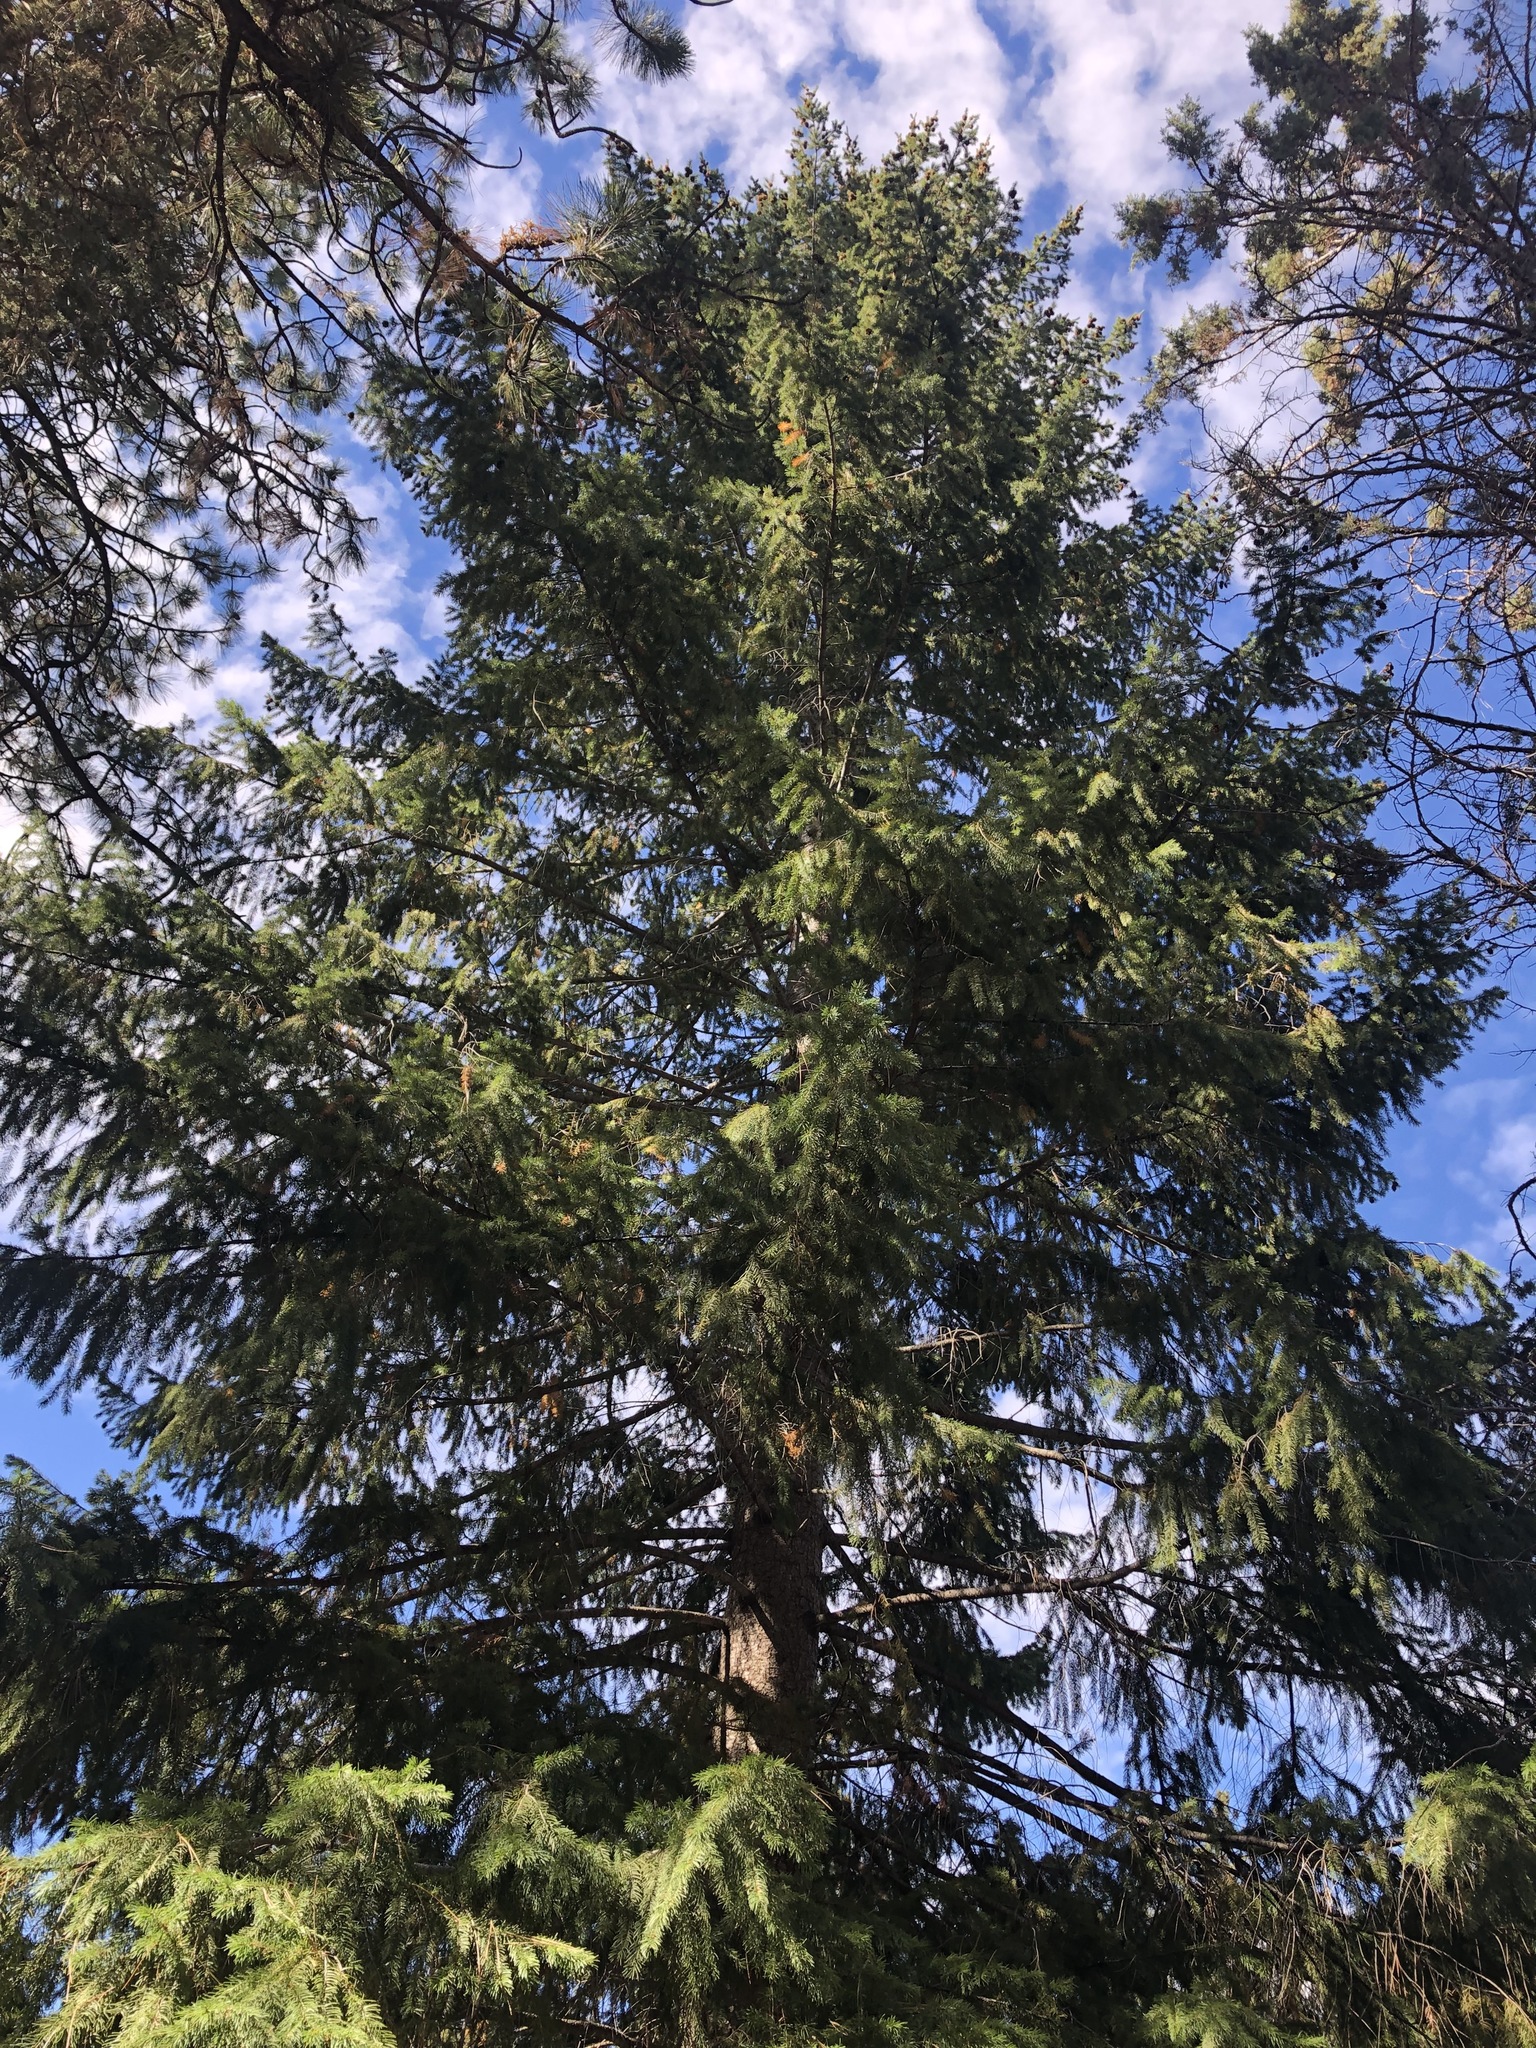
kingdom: Plantae
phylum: Tracheophyta
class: Pinopsida
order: Pinales
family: Pinaceae
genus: Pseudotsuga
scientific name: Pseudotsuga menziesii
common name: Douglas fir
